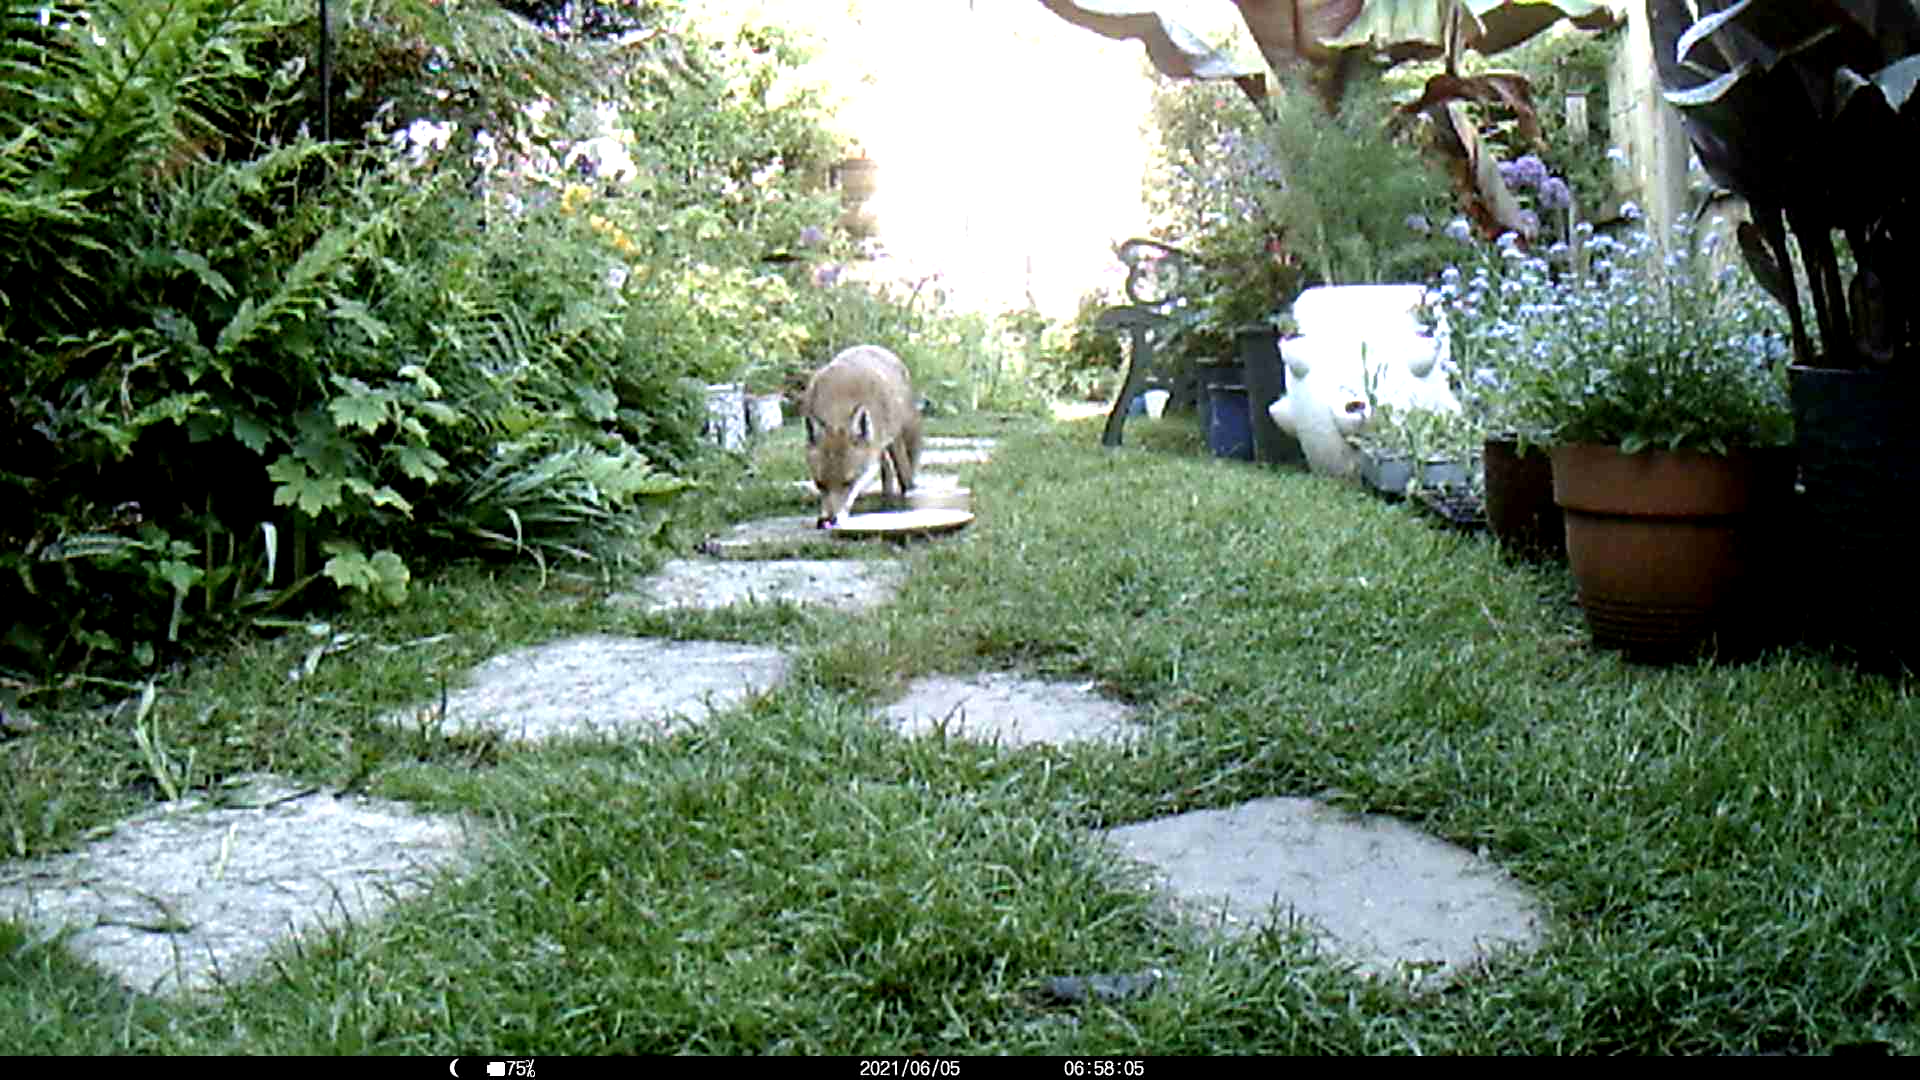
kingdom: Animalia
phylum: Chordata
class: Mammalia
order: Carnivora
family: Canidae
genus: Vulpes
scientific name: Vulpes vulpes
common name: Red fox
